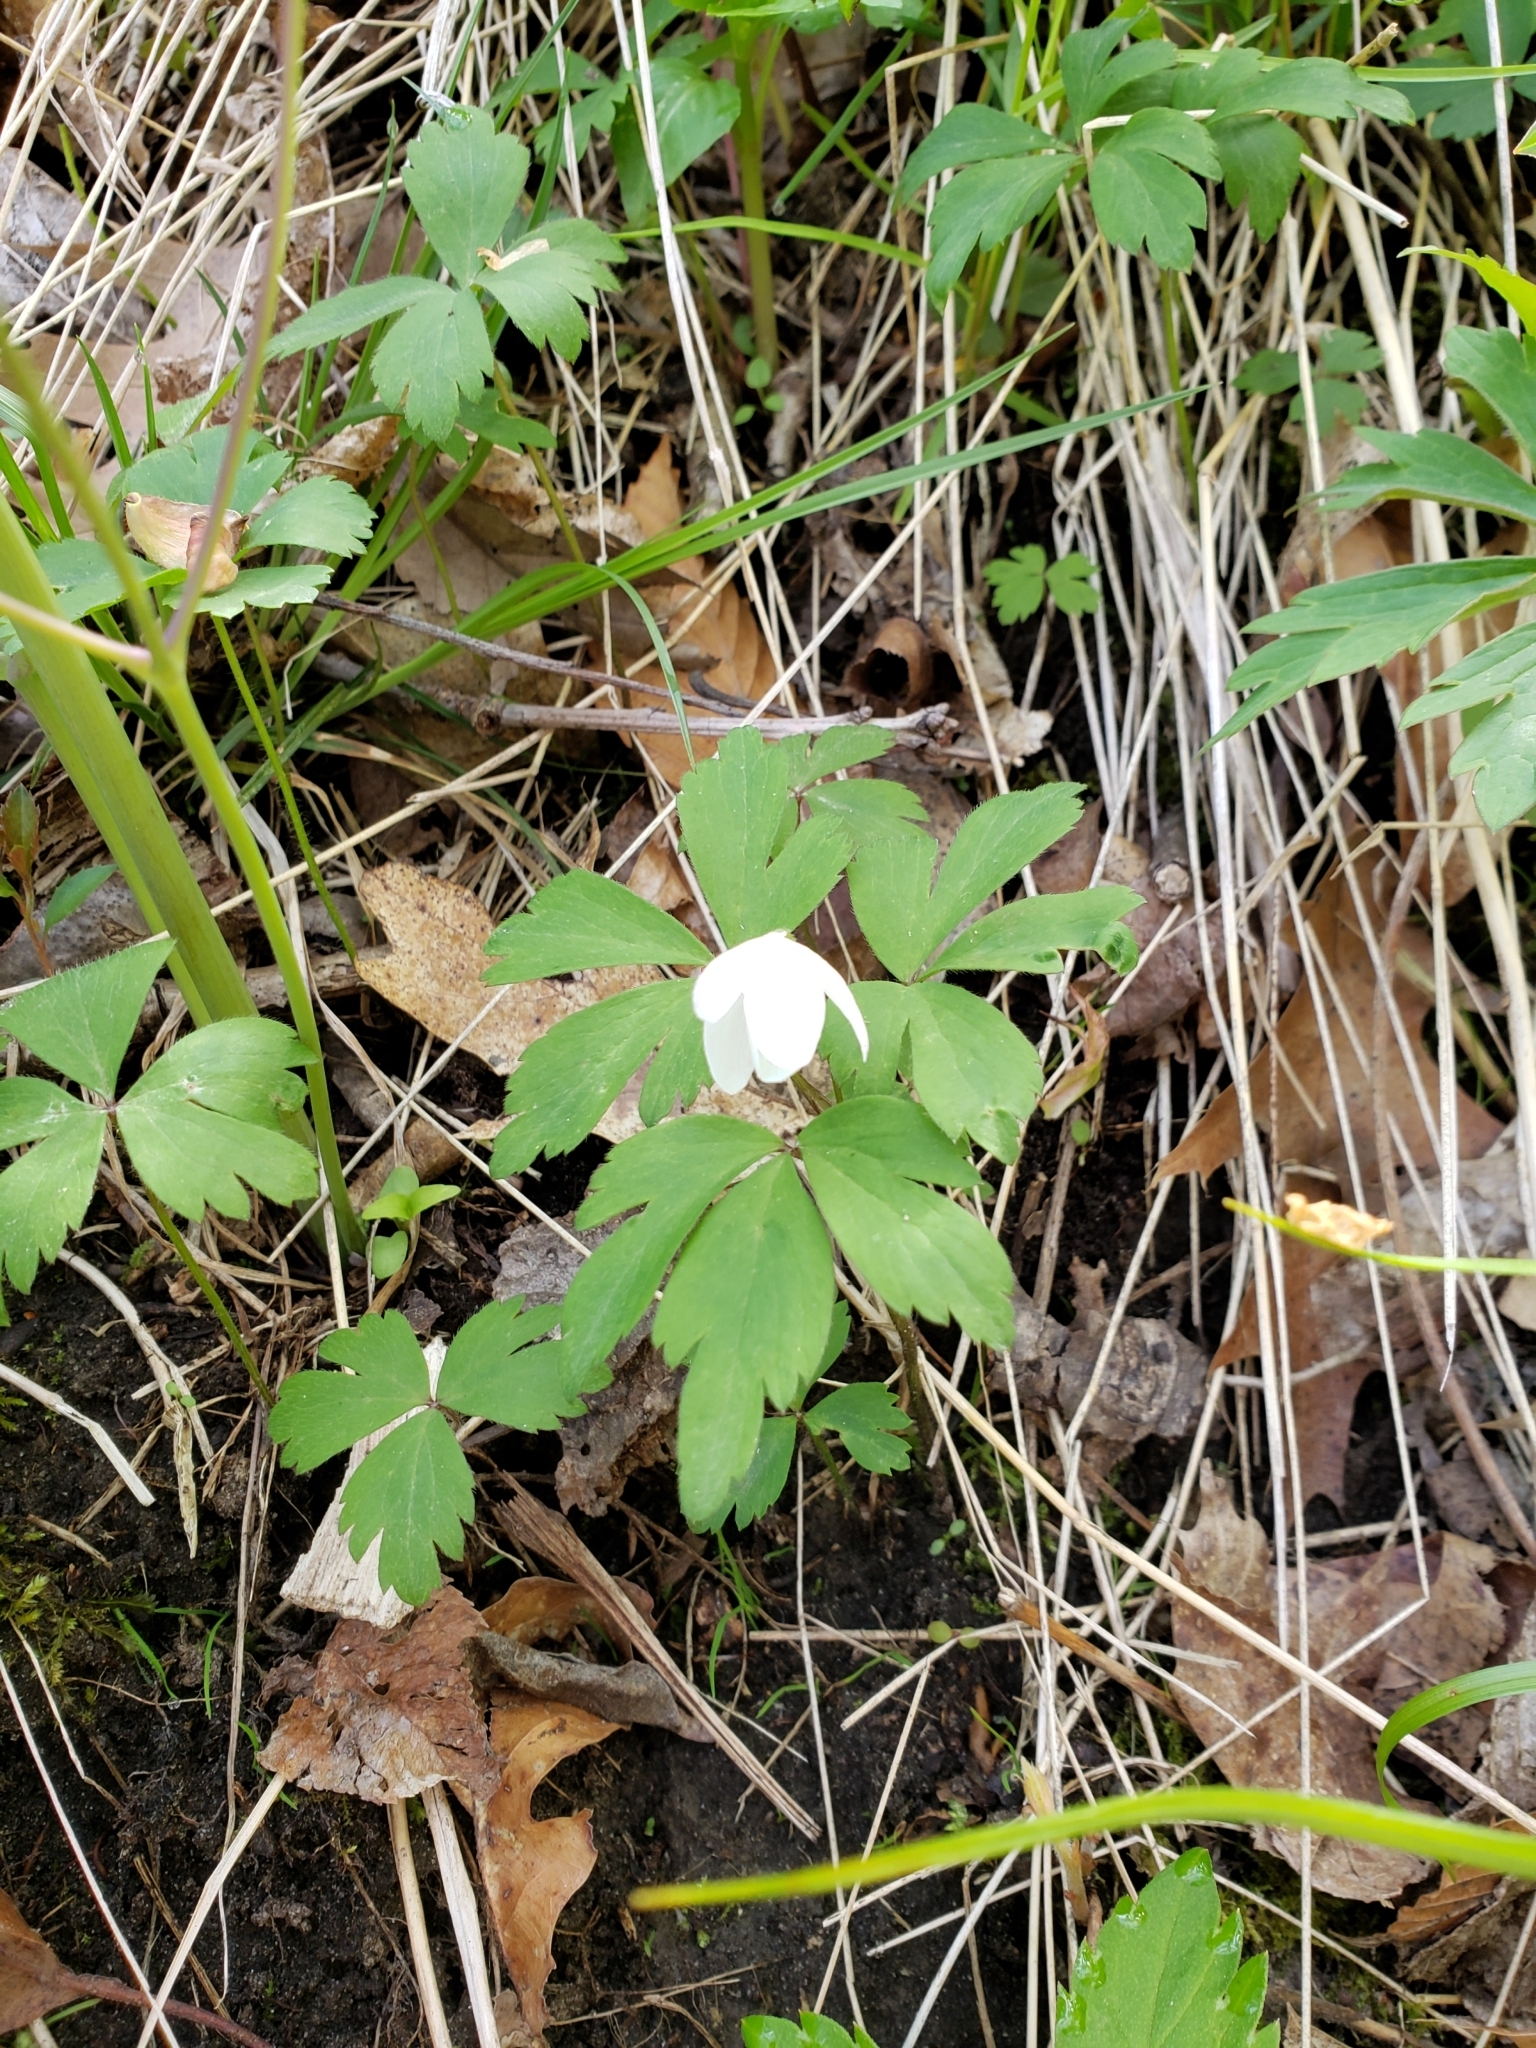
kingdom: Plantae
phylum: Tracheophyta
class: Magnoliopsida
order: Ranunculales
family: Ranunculaceae
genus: Anemone
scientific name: Anemone quinquefolia
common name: Wood anemone
